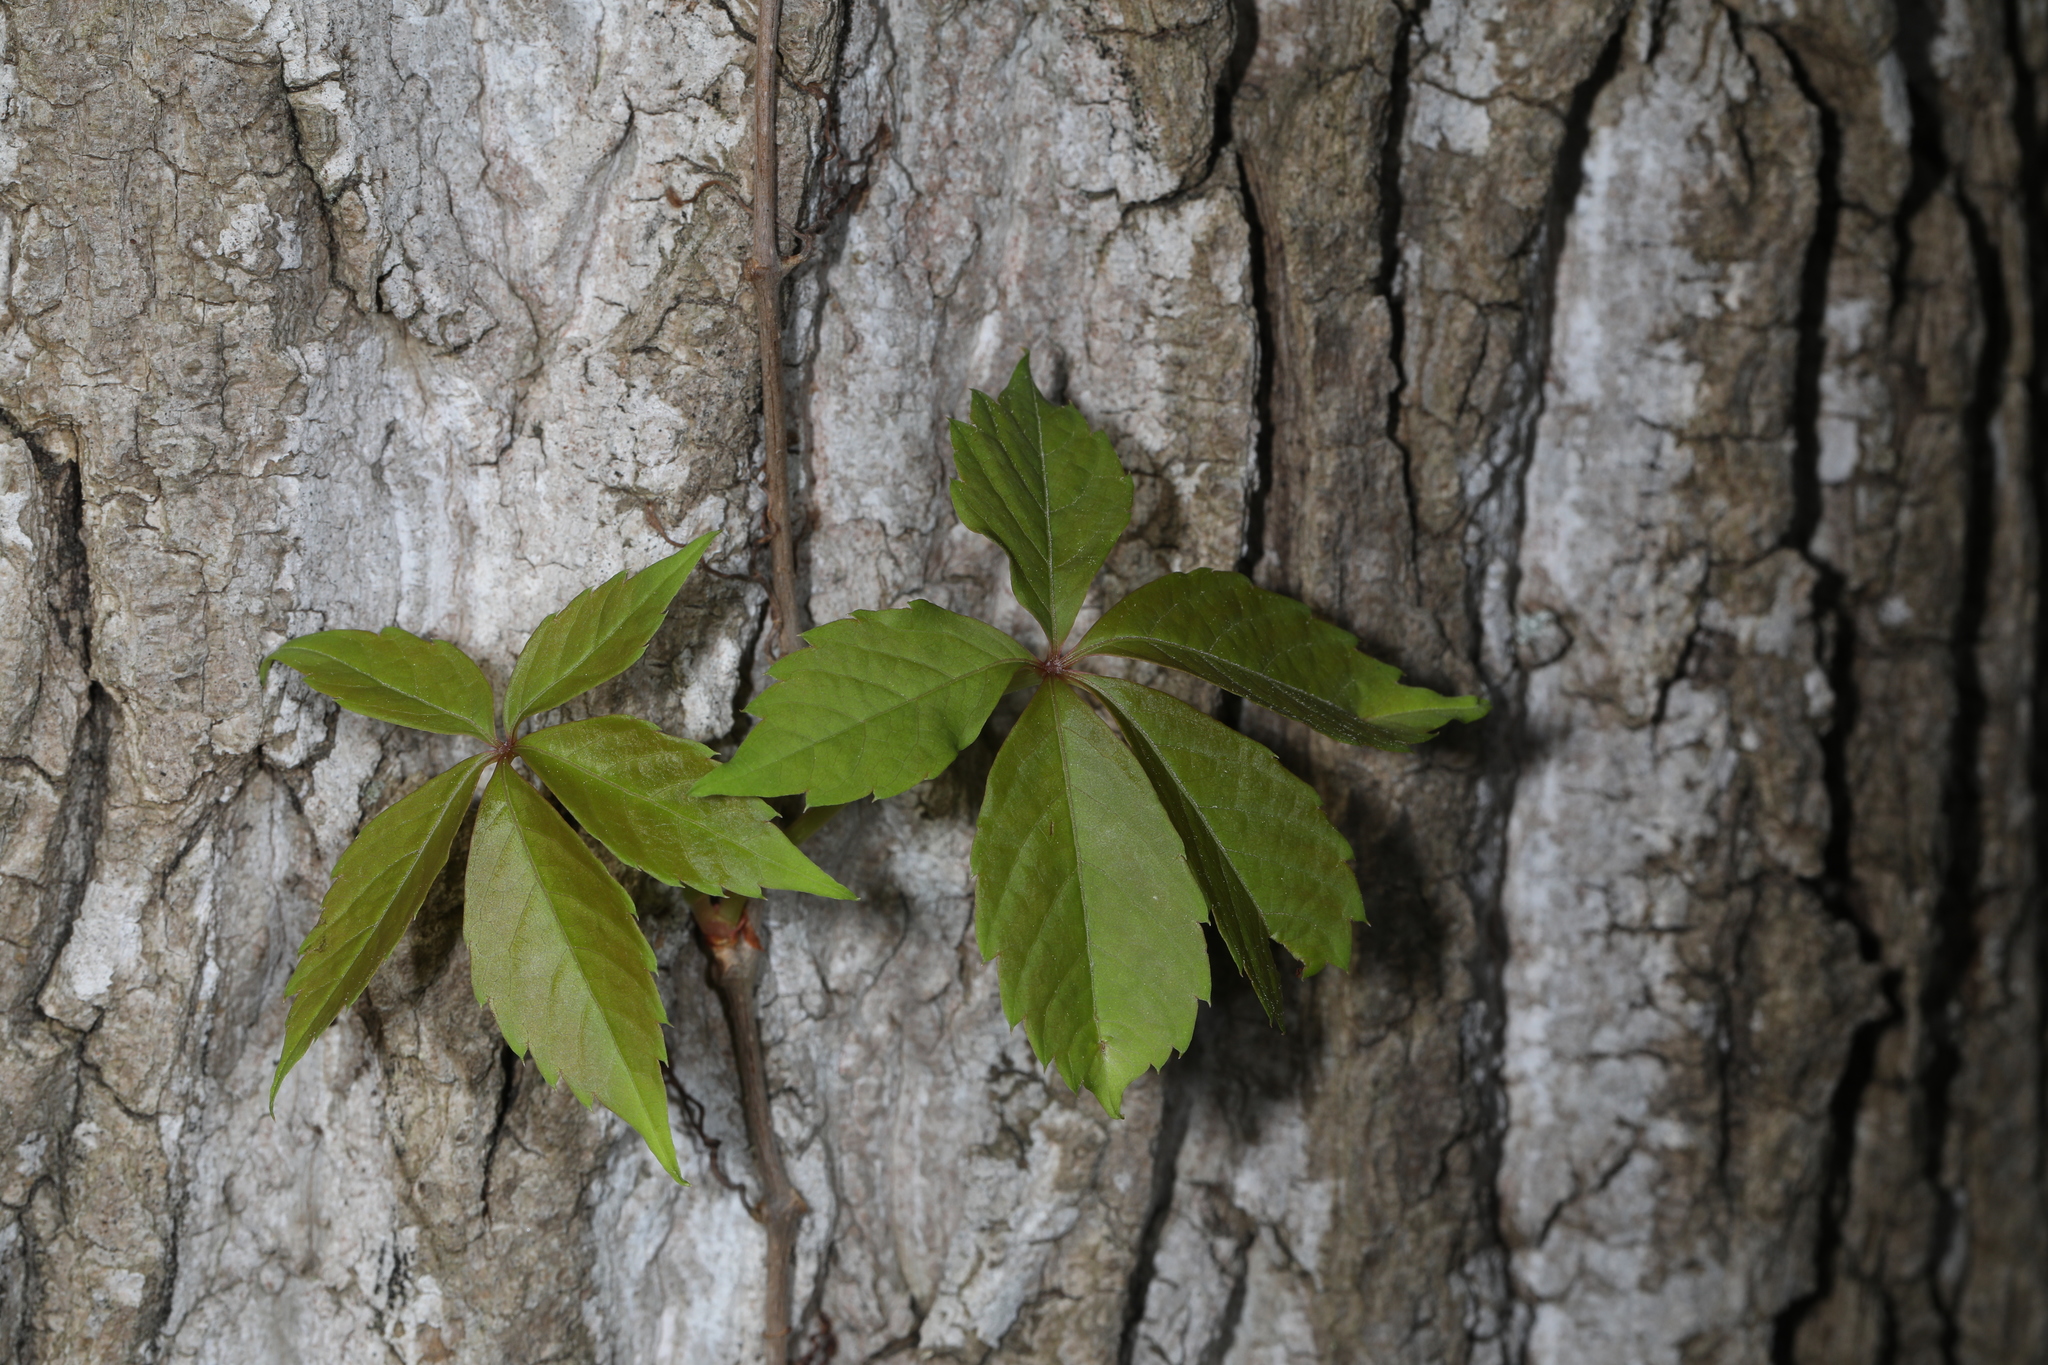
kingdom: Plantae
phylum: Tracheophyta
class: Magnoliopsida
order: Vitales
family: Vitaceae
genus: Parthenocissus
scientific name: Parthenocissus quinquefolia
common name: Virginia-creeper
